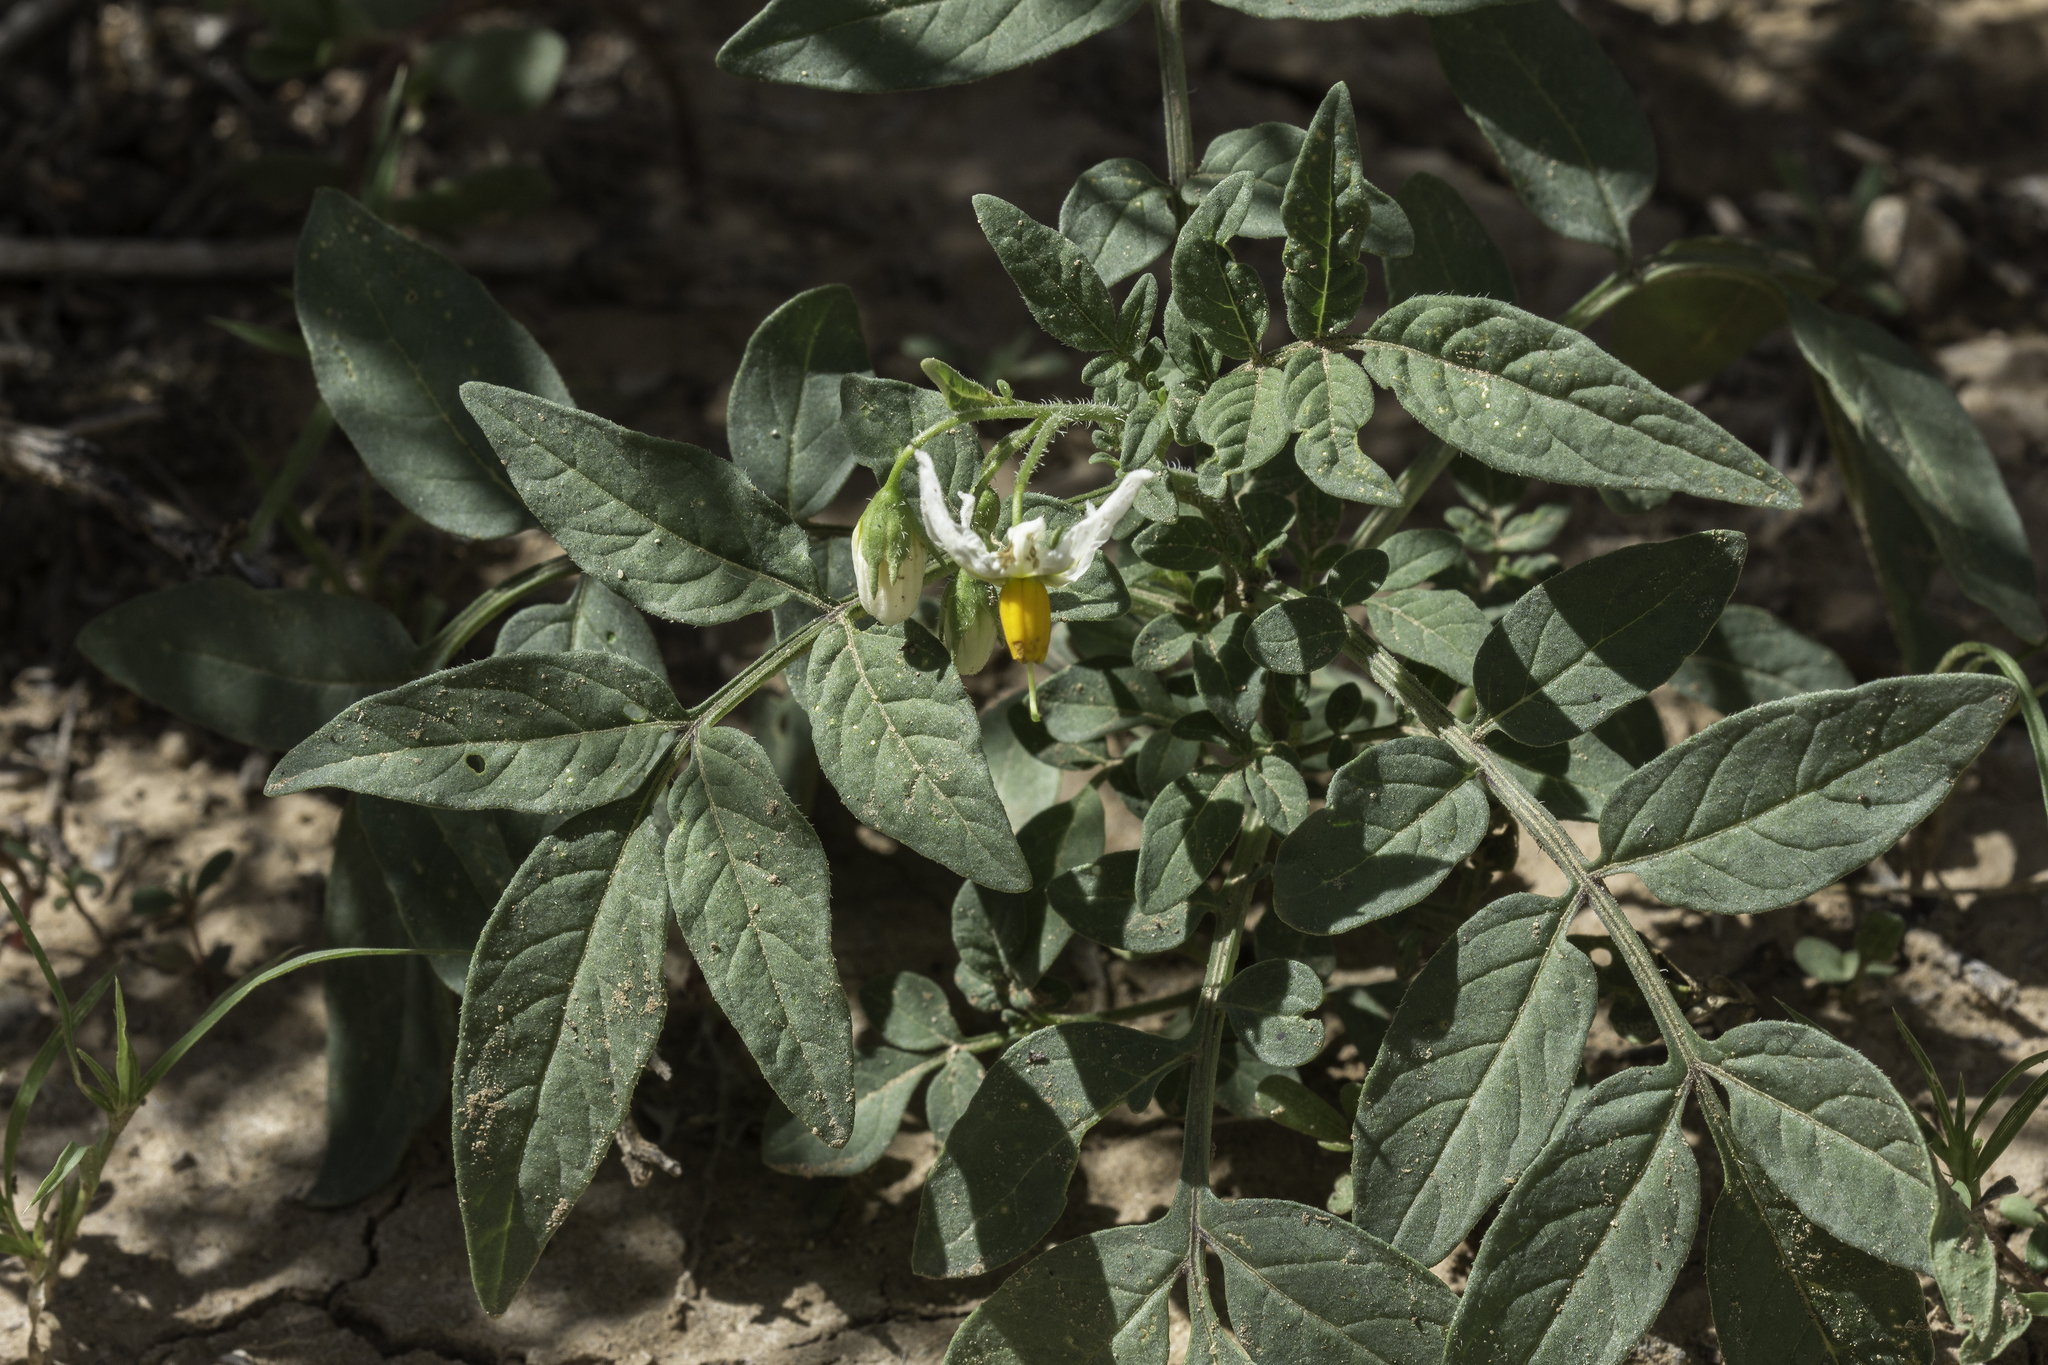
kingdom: Plantae
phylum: Tracheophyta
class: Magnoliopsida
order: Solanales
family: Solanaceae
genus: Solanum
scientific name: Solanum jamesii
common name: Wild potato
